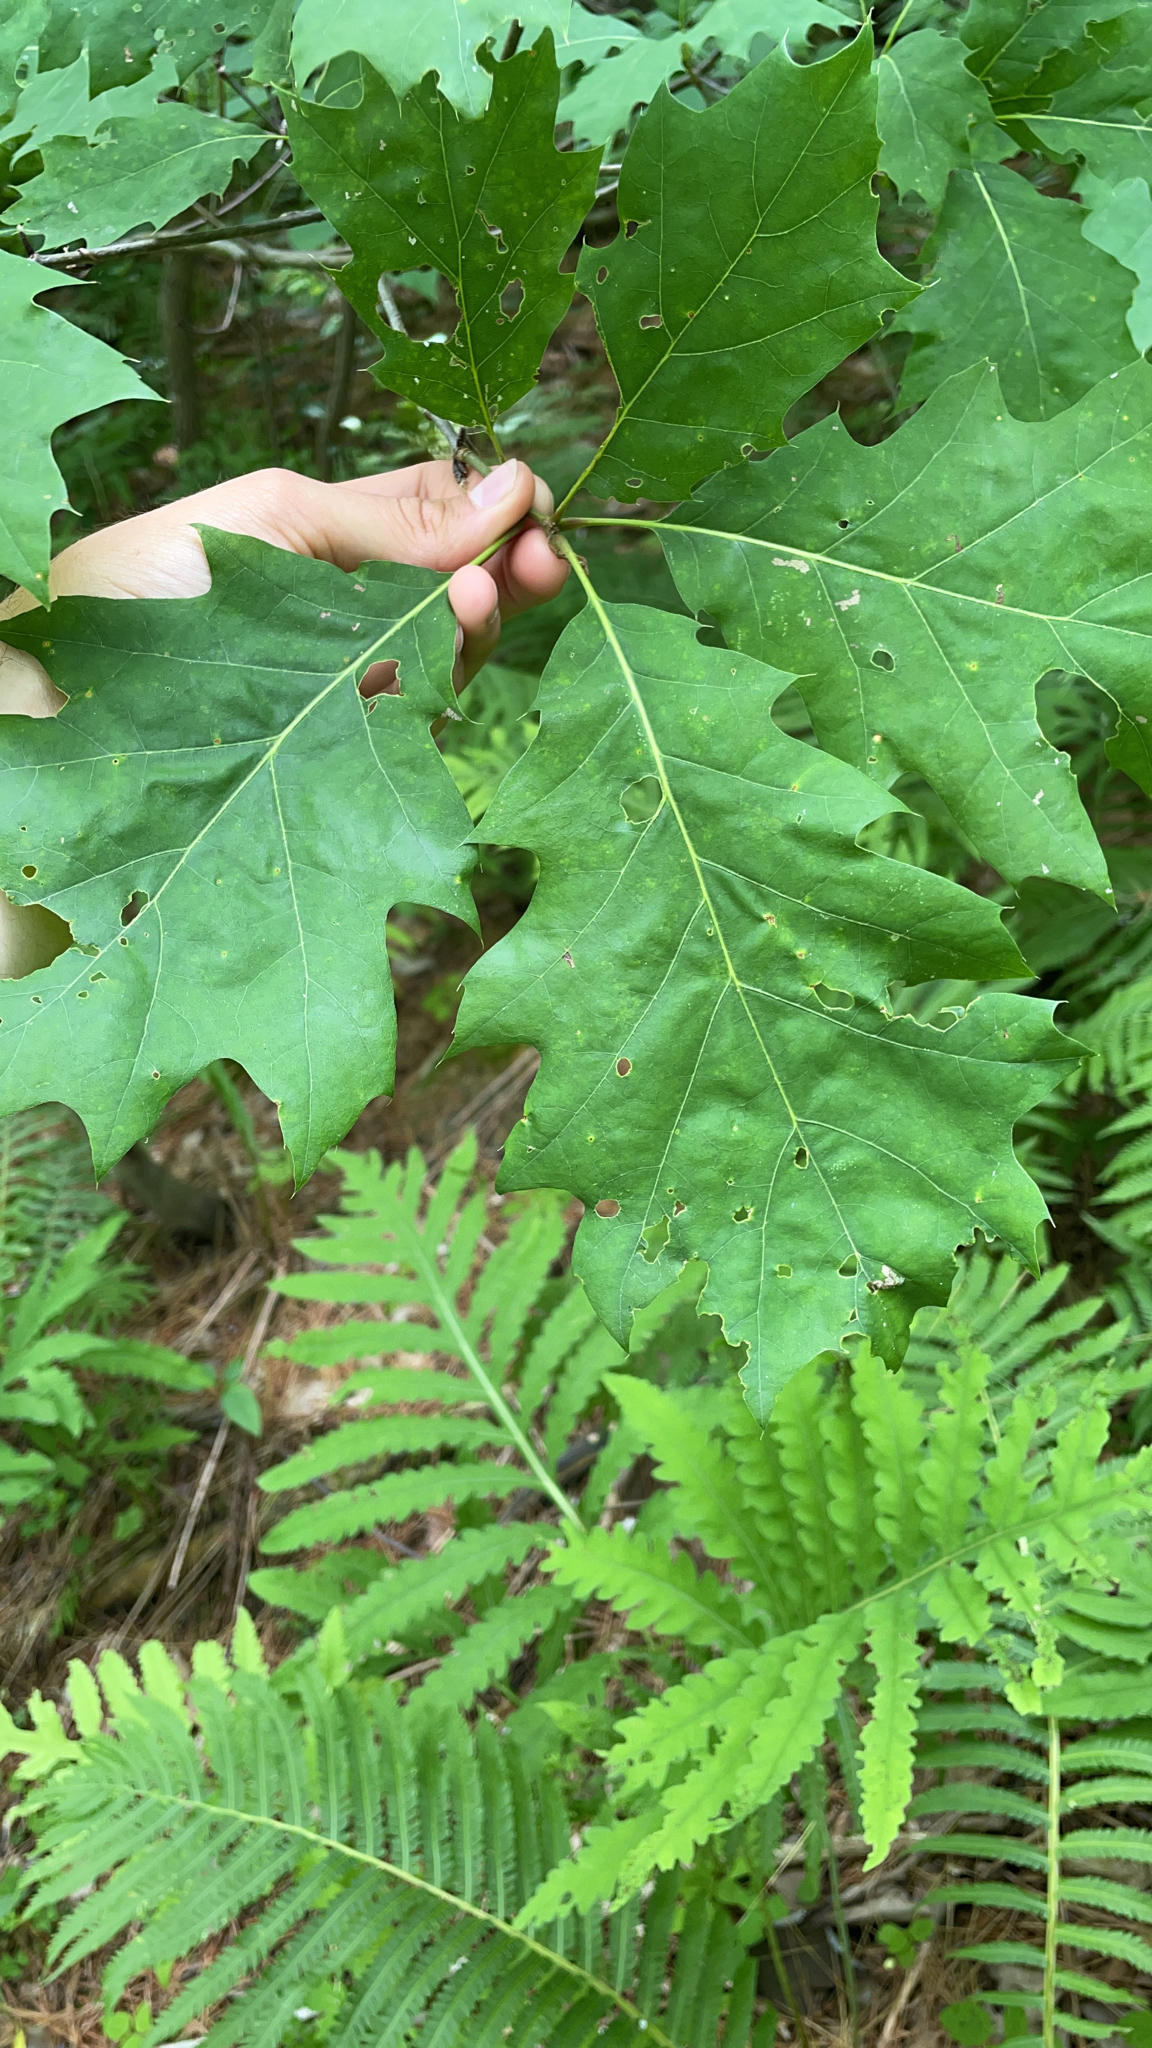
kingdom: Plantae
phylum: Tracheophyta
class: Magnoliopsida
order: Fagales
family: Fagaceae
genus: Quercus
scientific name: Quercus rubra
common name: Red oak
